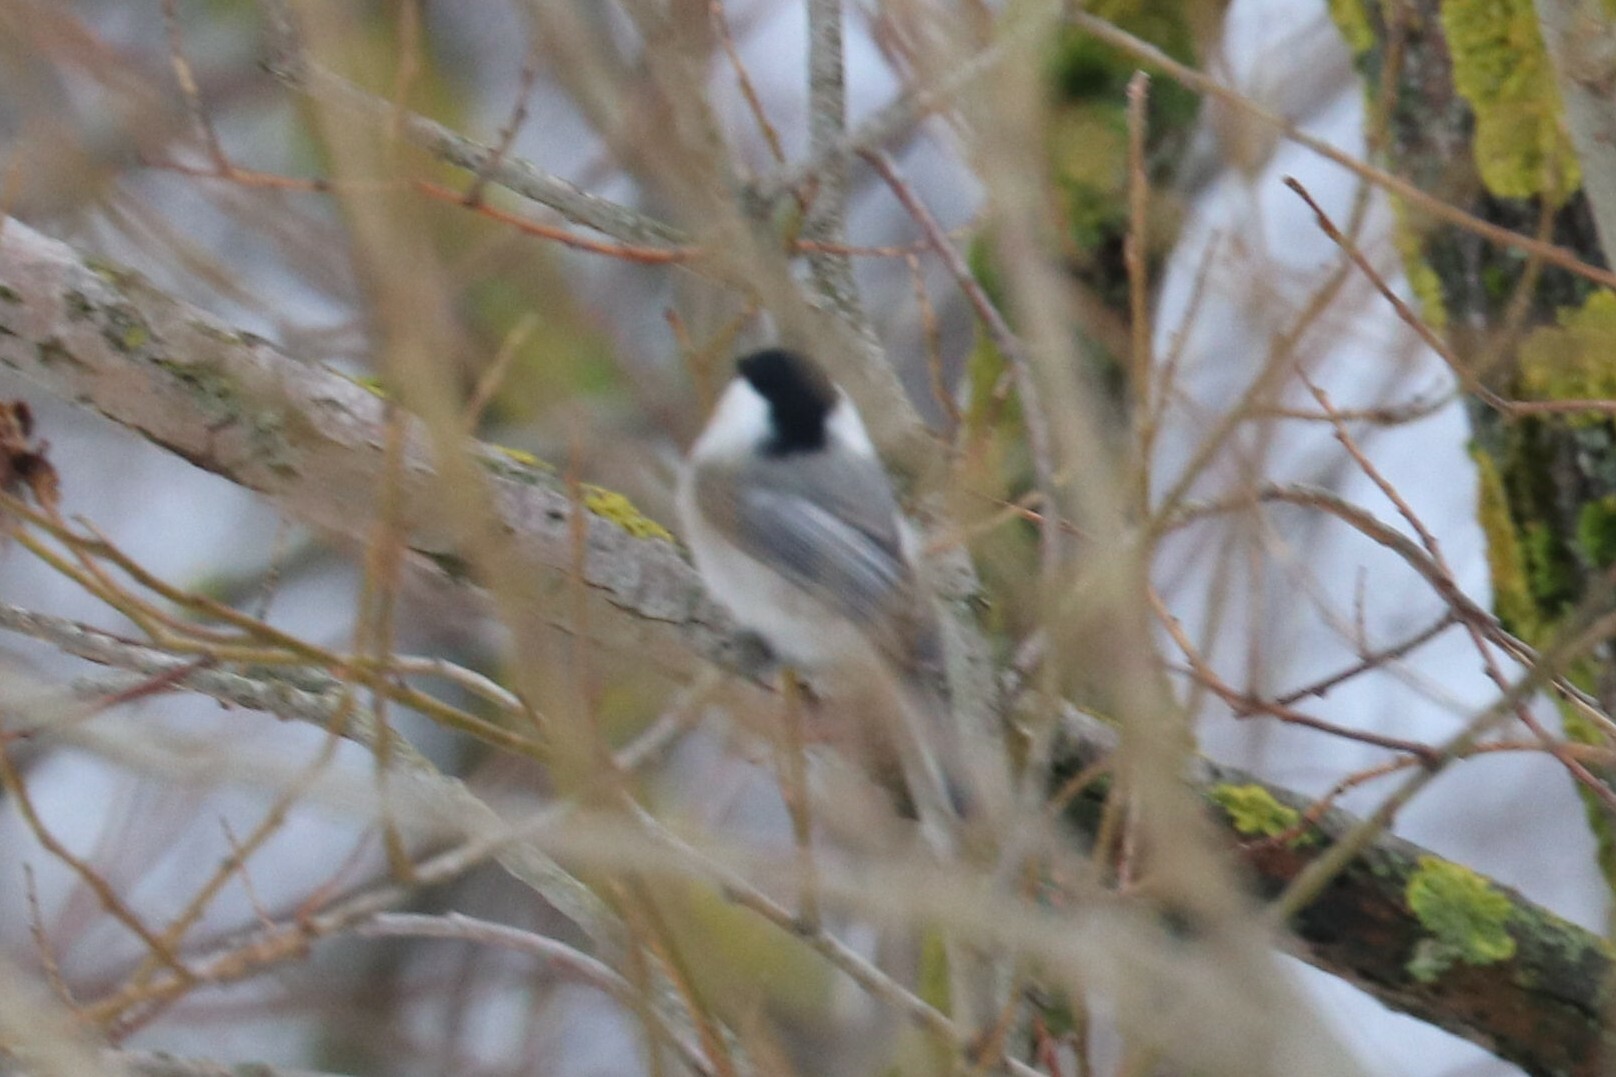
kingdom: Animalia
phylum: Chordata
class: Aves
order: Passeriformes
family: Paridae
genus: Poecile
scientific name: Poecile montanus
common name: Willow tit
